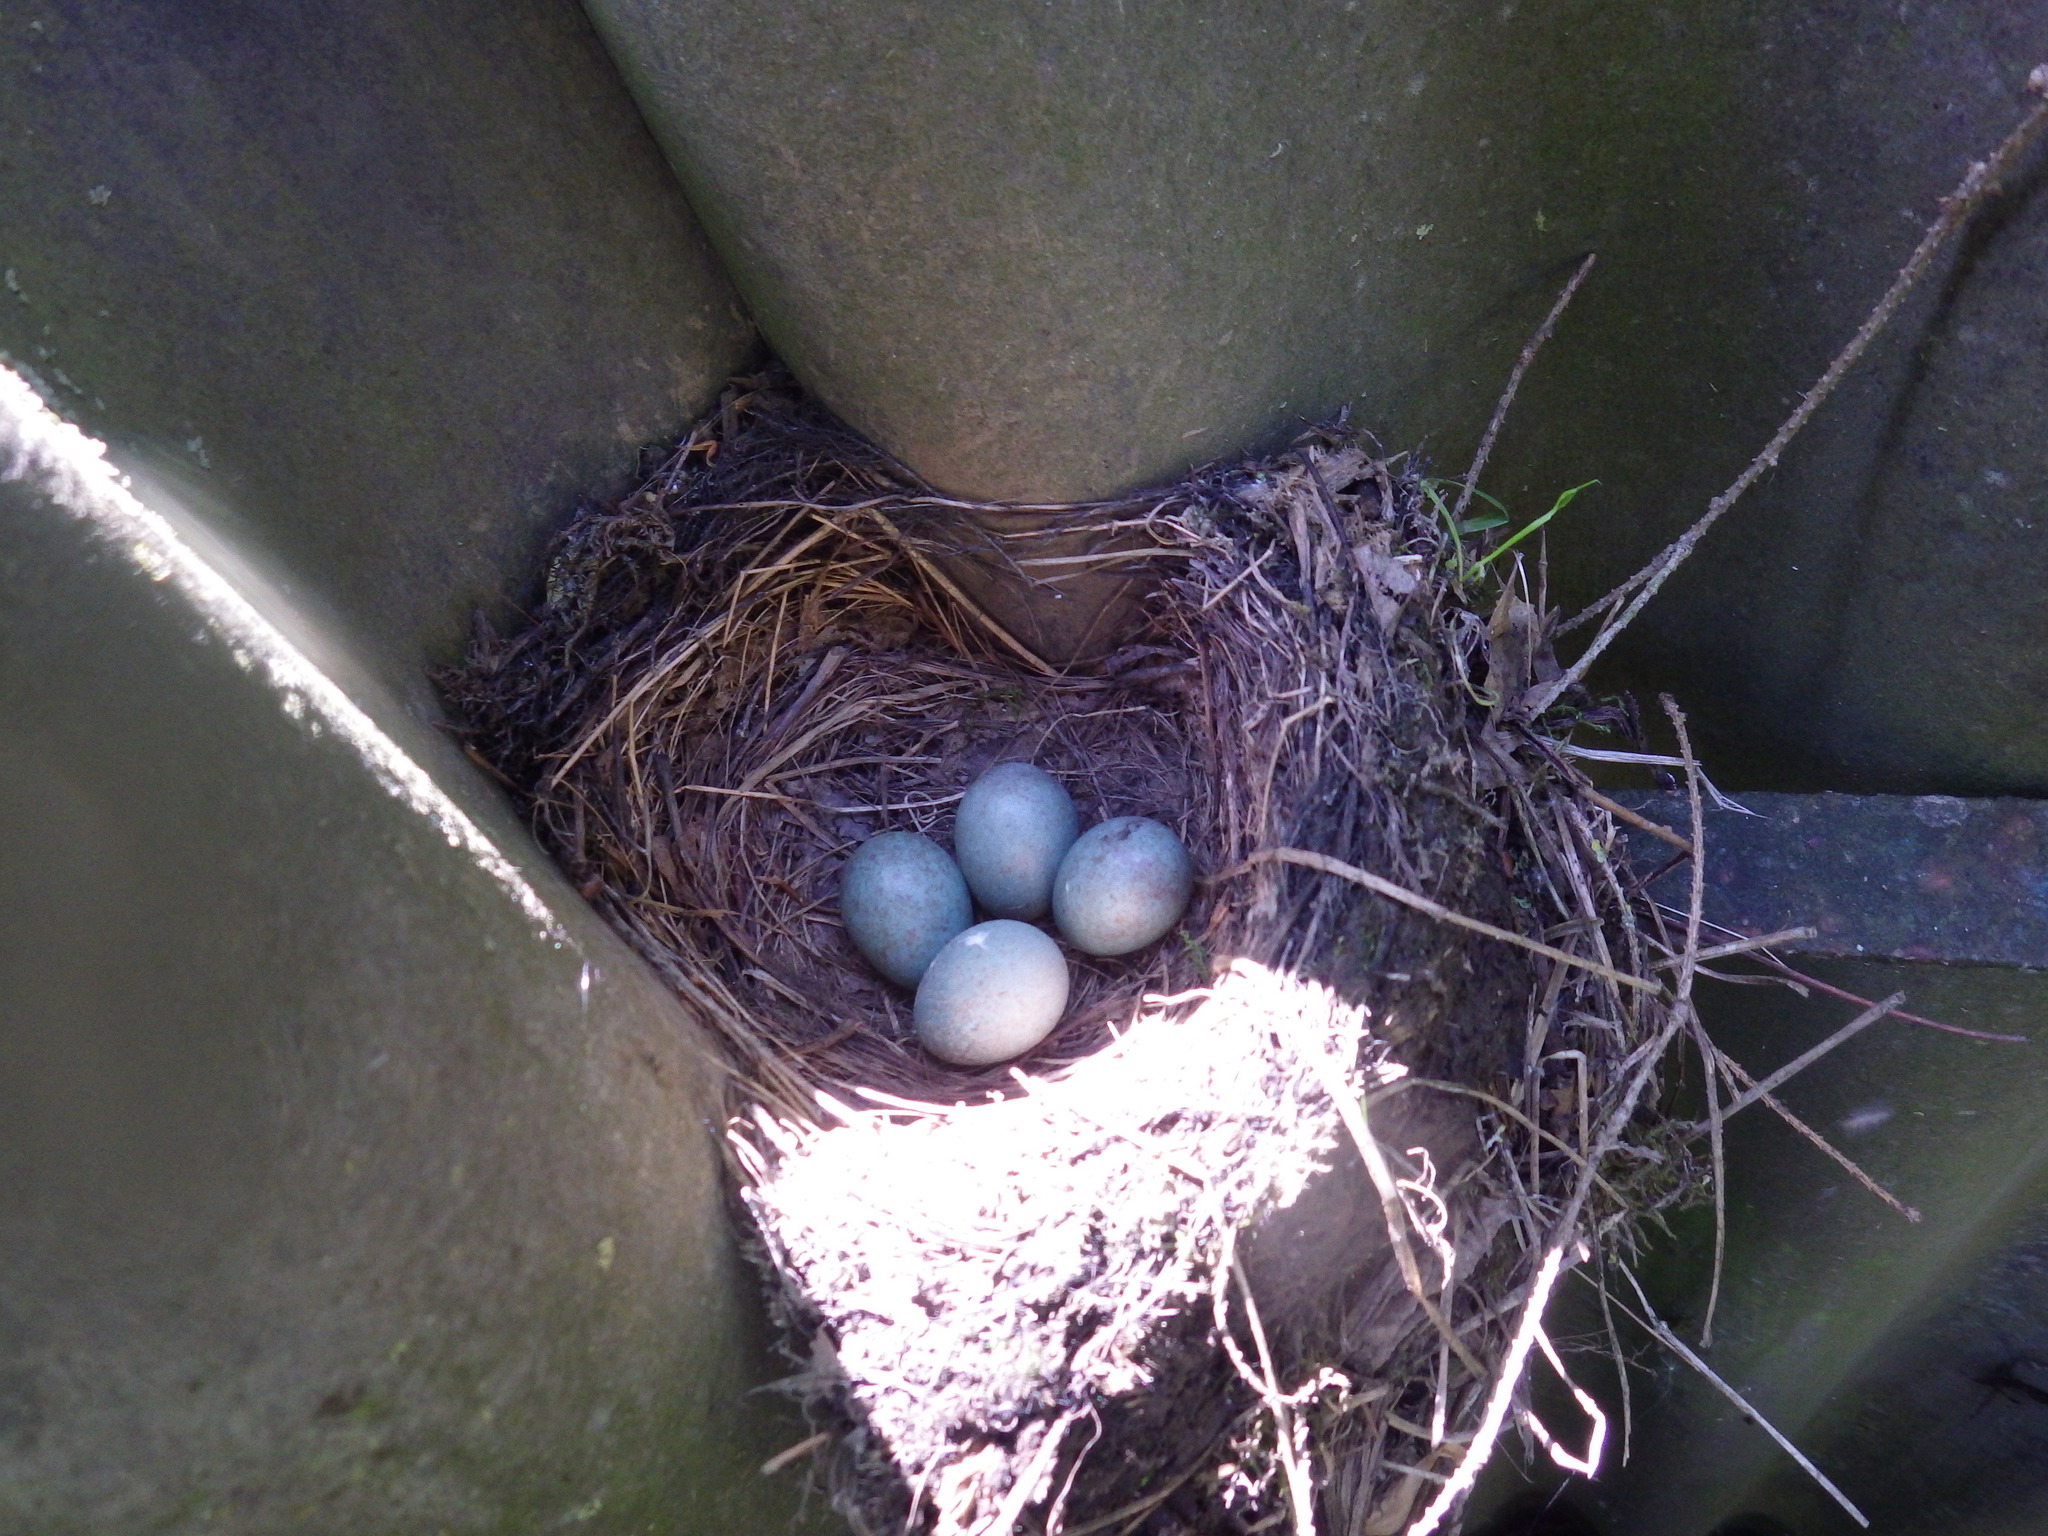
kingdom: Animalia
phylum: Chordata
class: Aves
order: Passeriformes
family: Turdidae
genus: Turdus
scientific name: Turdus merula
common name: Common blackbird
